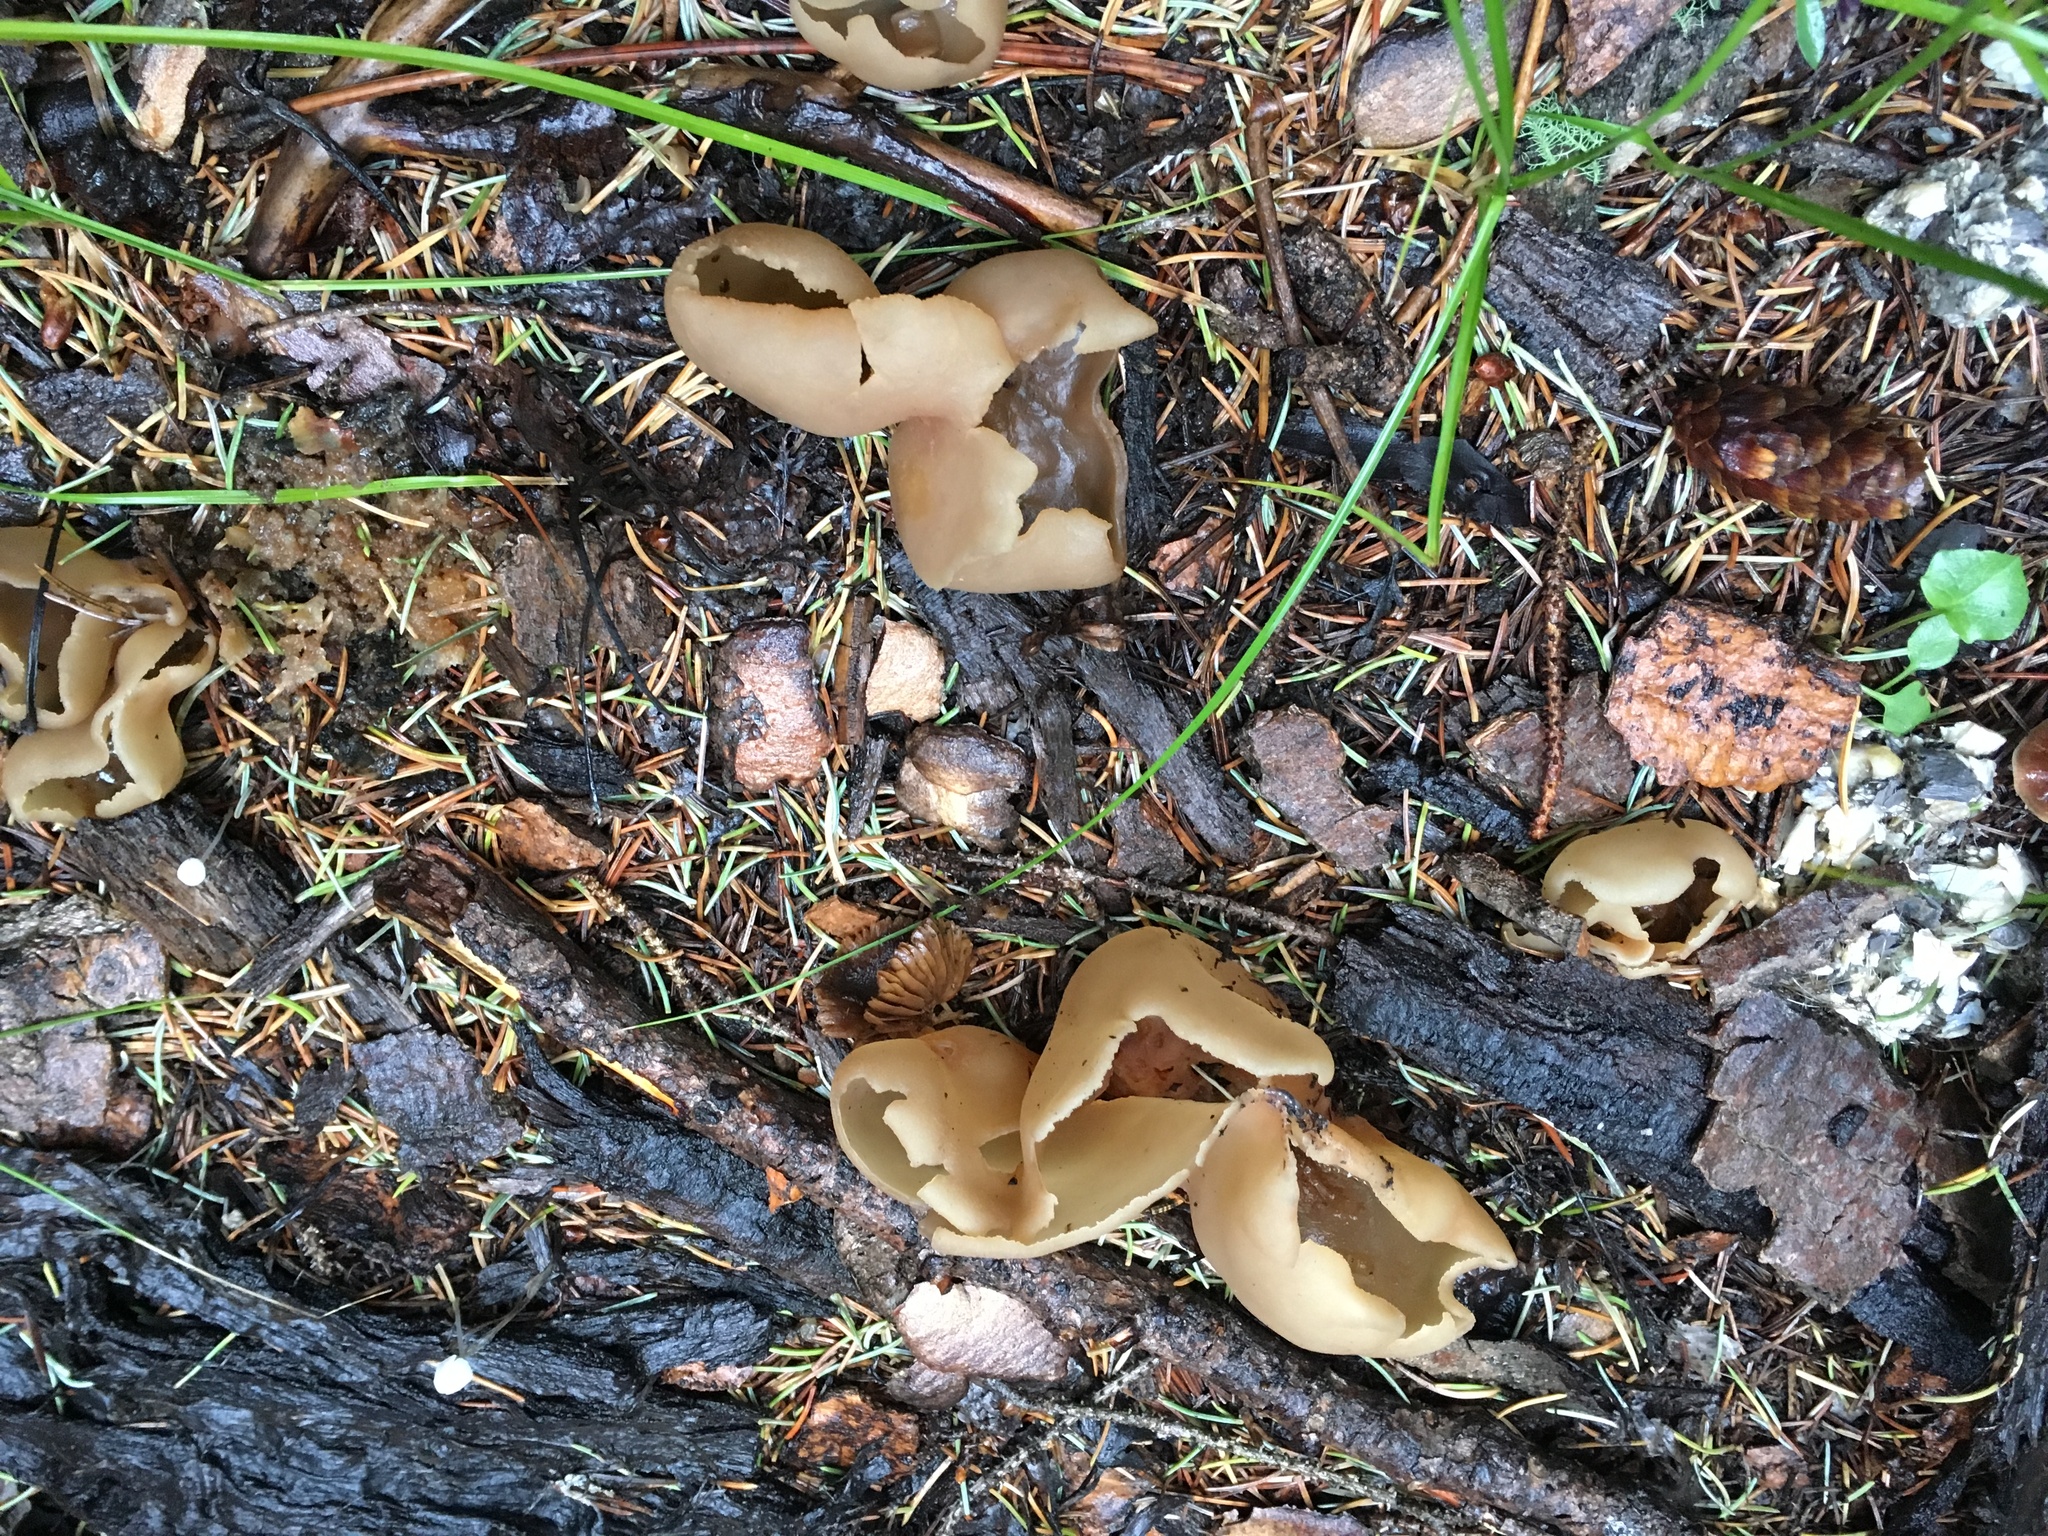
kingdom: Fungi
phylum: Ascomycota
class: Pezizomycetes
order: Pezizales
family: Pezizaceae
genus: Peziza
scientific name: Peziza varia
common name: Layered cup
